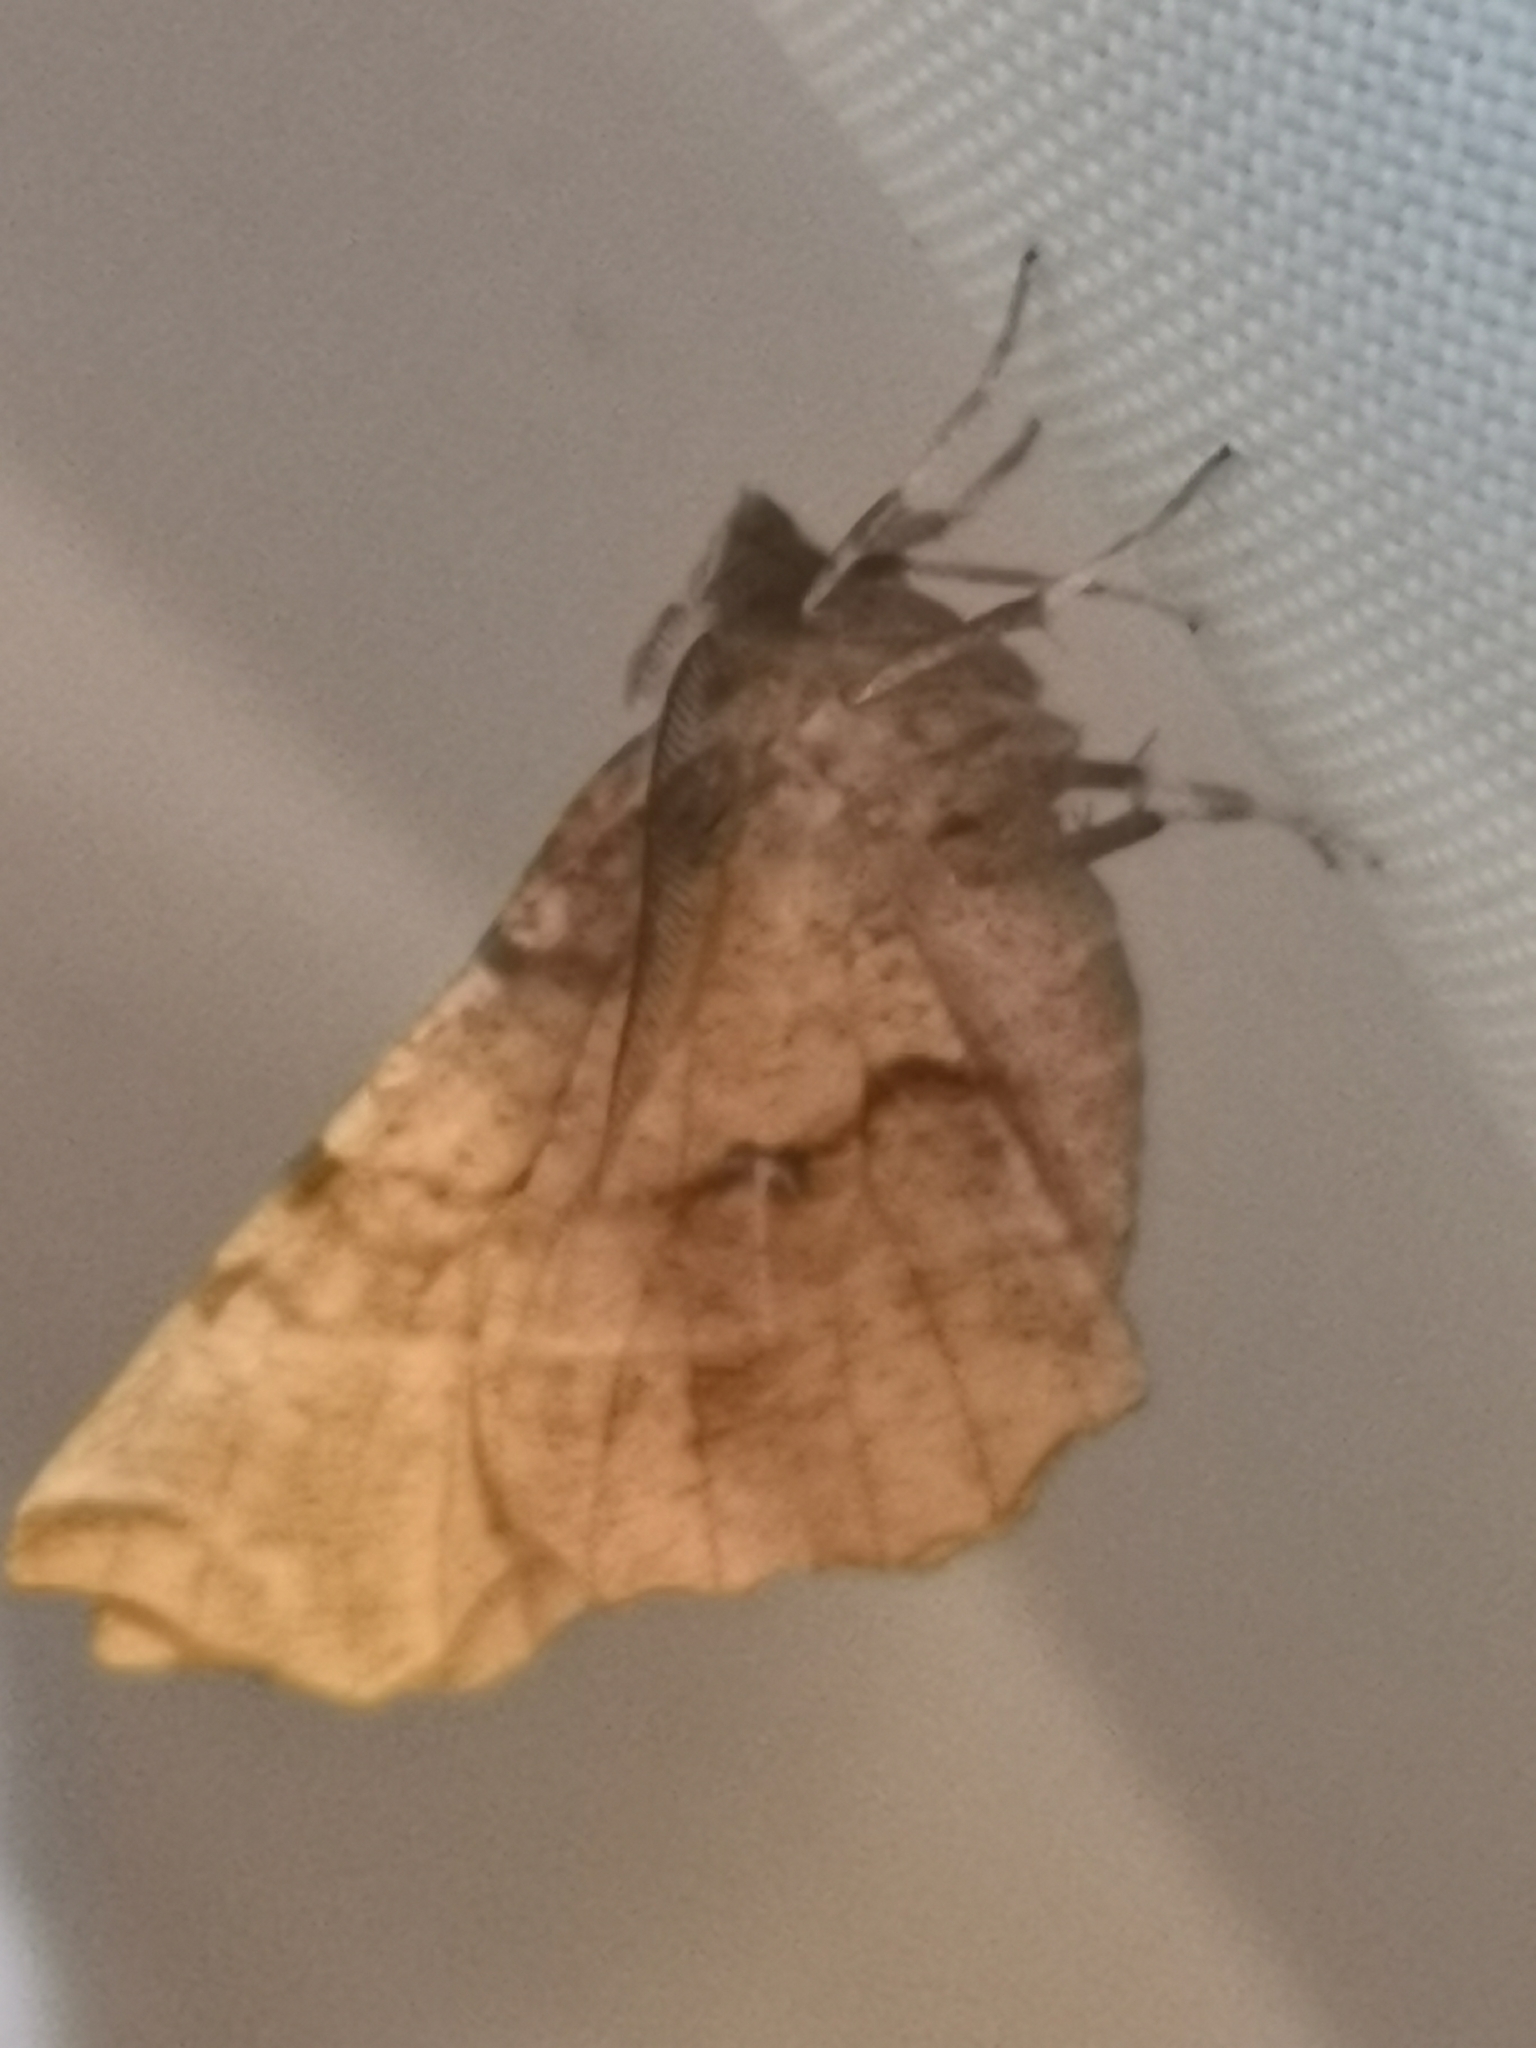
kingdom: Animalia
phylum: Arthropoda
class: Insecta
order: Lepidoptera
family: Geometridae
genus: Selenia
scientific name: Selenia dentaria
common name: Early thorn
